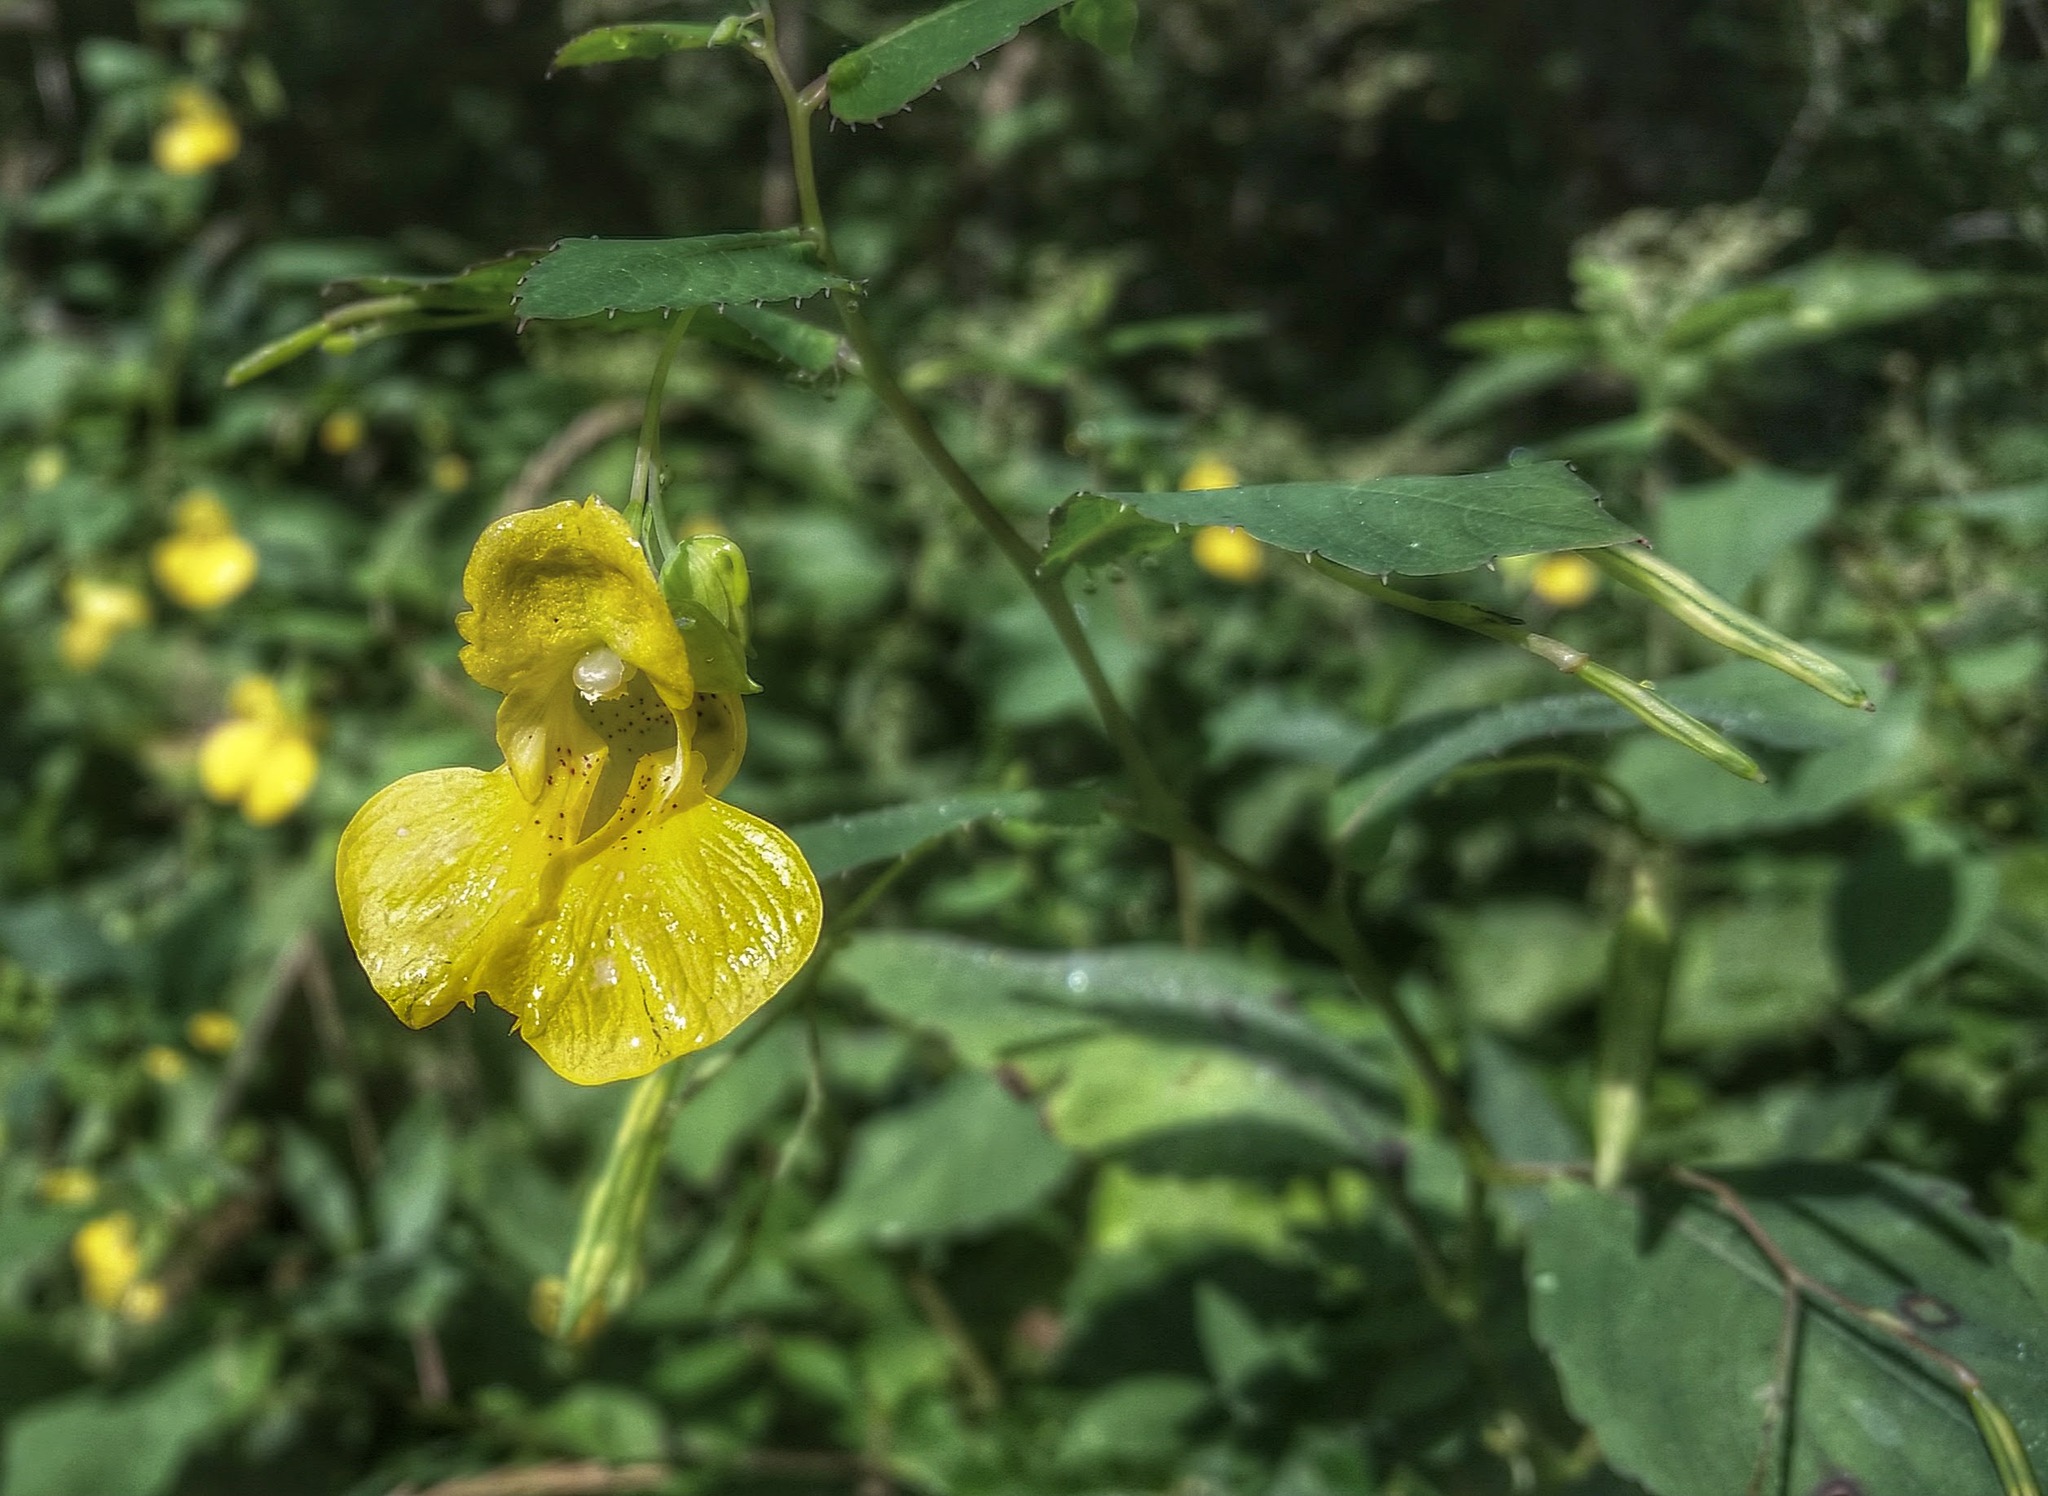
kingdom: Plantae
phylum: Tracheophyta
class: Magnoliopsida
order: Ericales
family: Balsaminaceae
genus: Impatiens
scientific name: Impatiens pallida
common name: Pale snapweed
